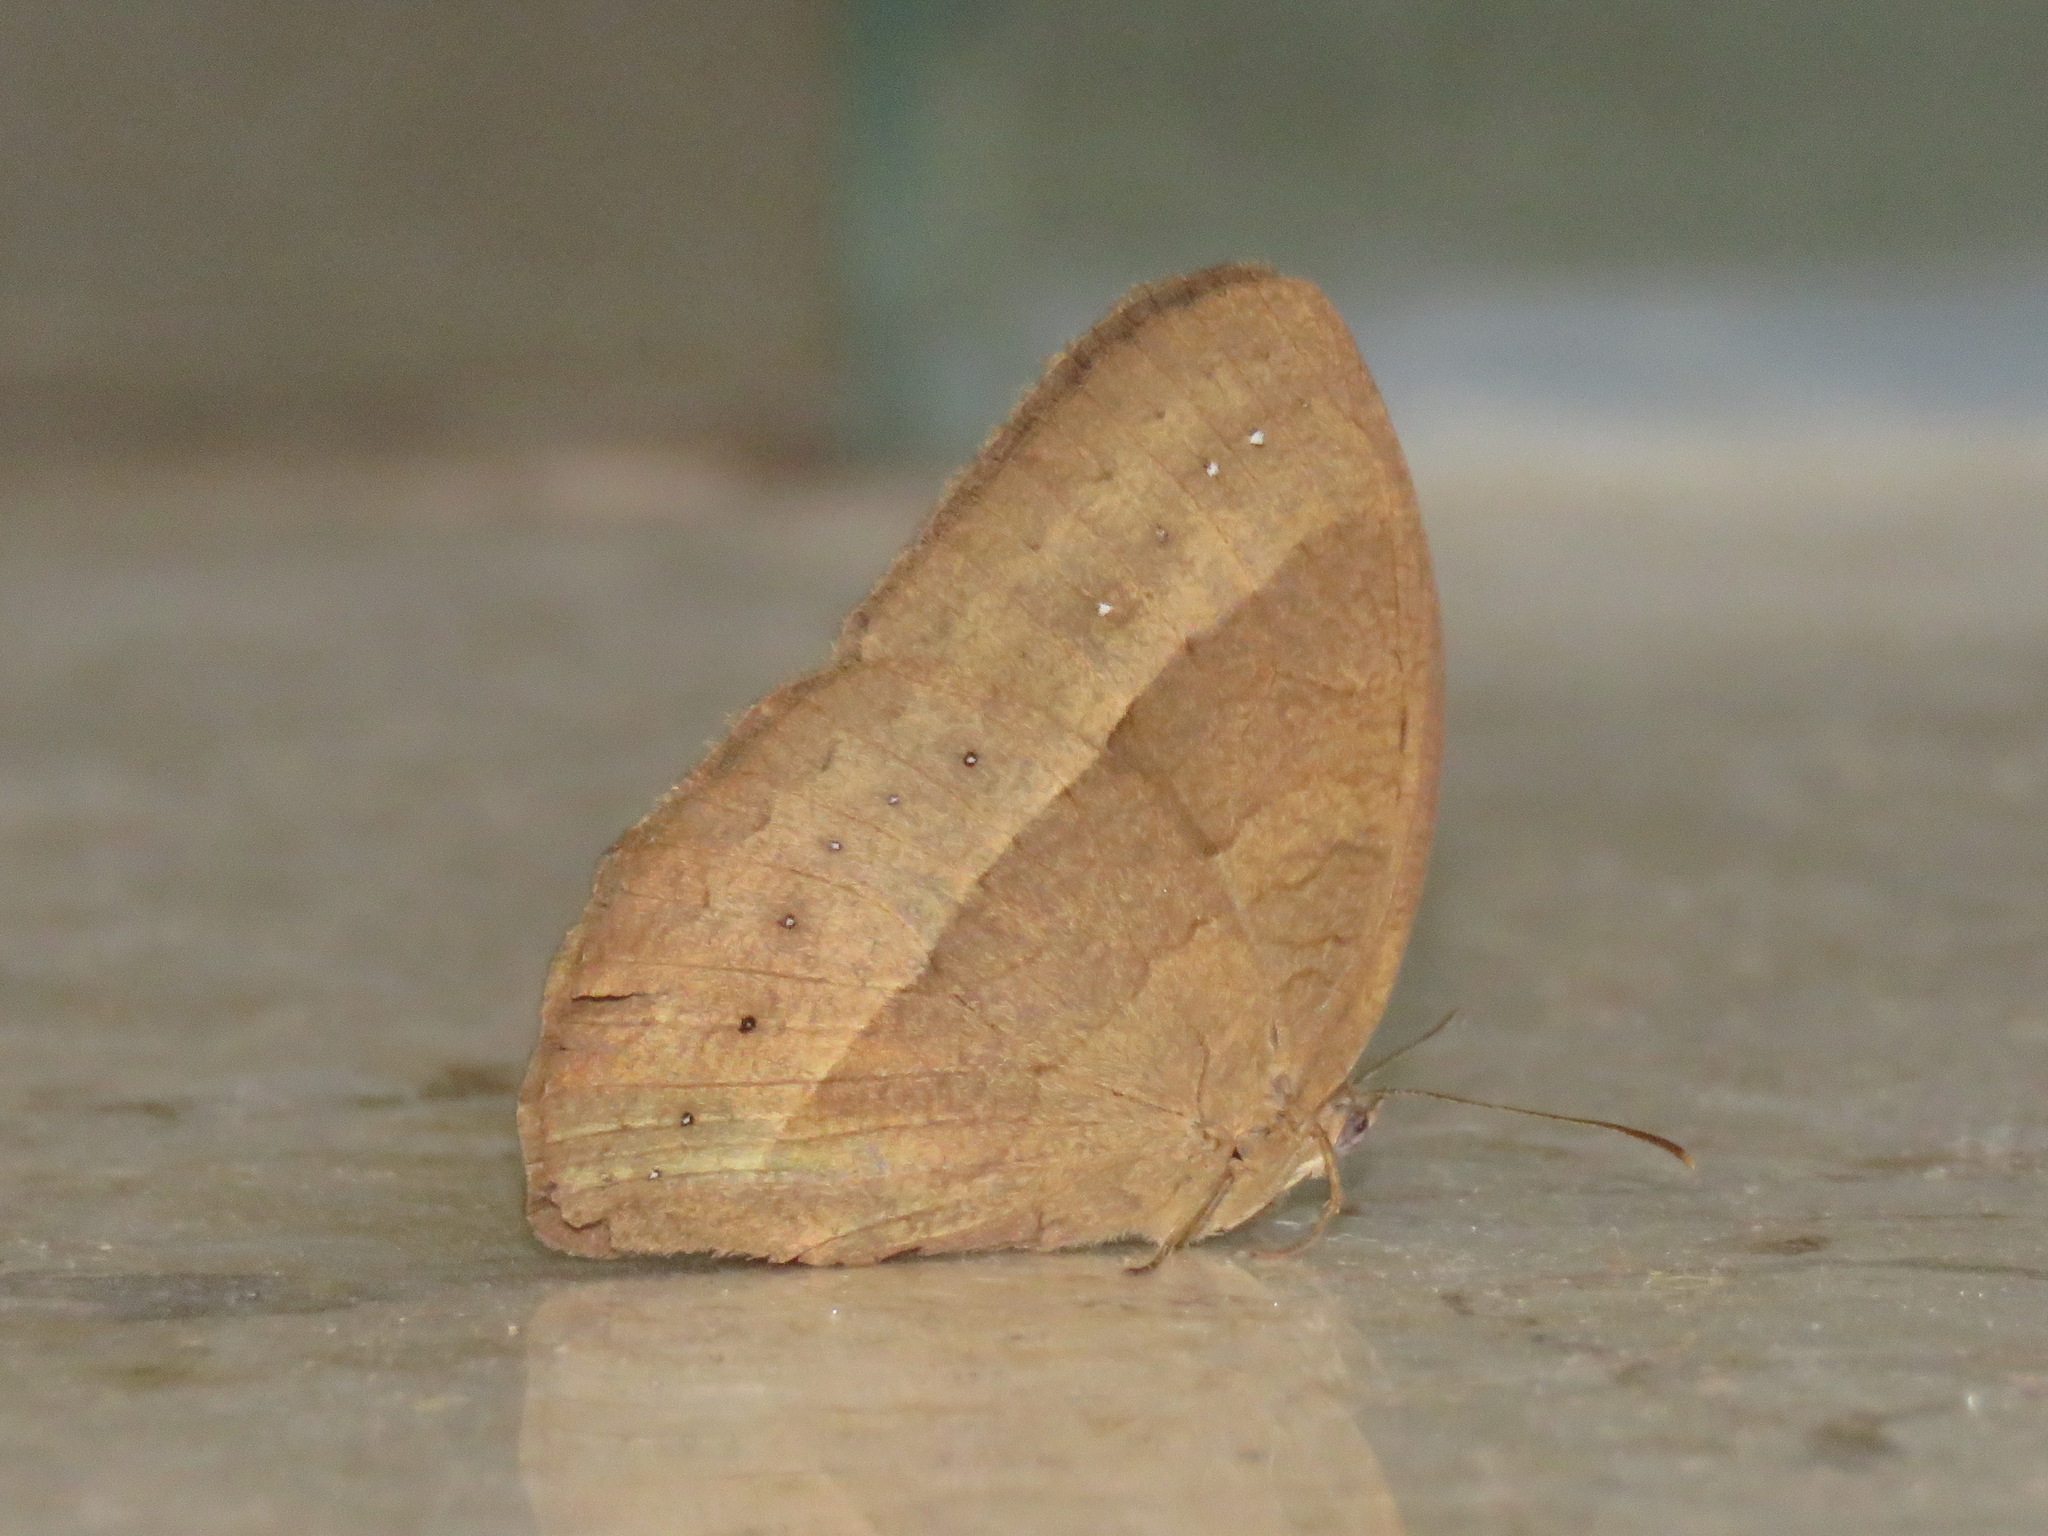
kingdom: Animalia
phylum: Arthropoda
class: Insecta
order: Lepidoptera
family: Nymphalidae
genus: Mycalesis
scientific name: Mycalesis mineus
